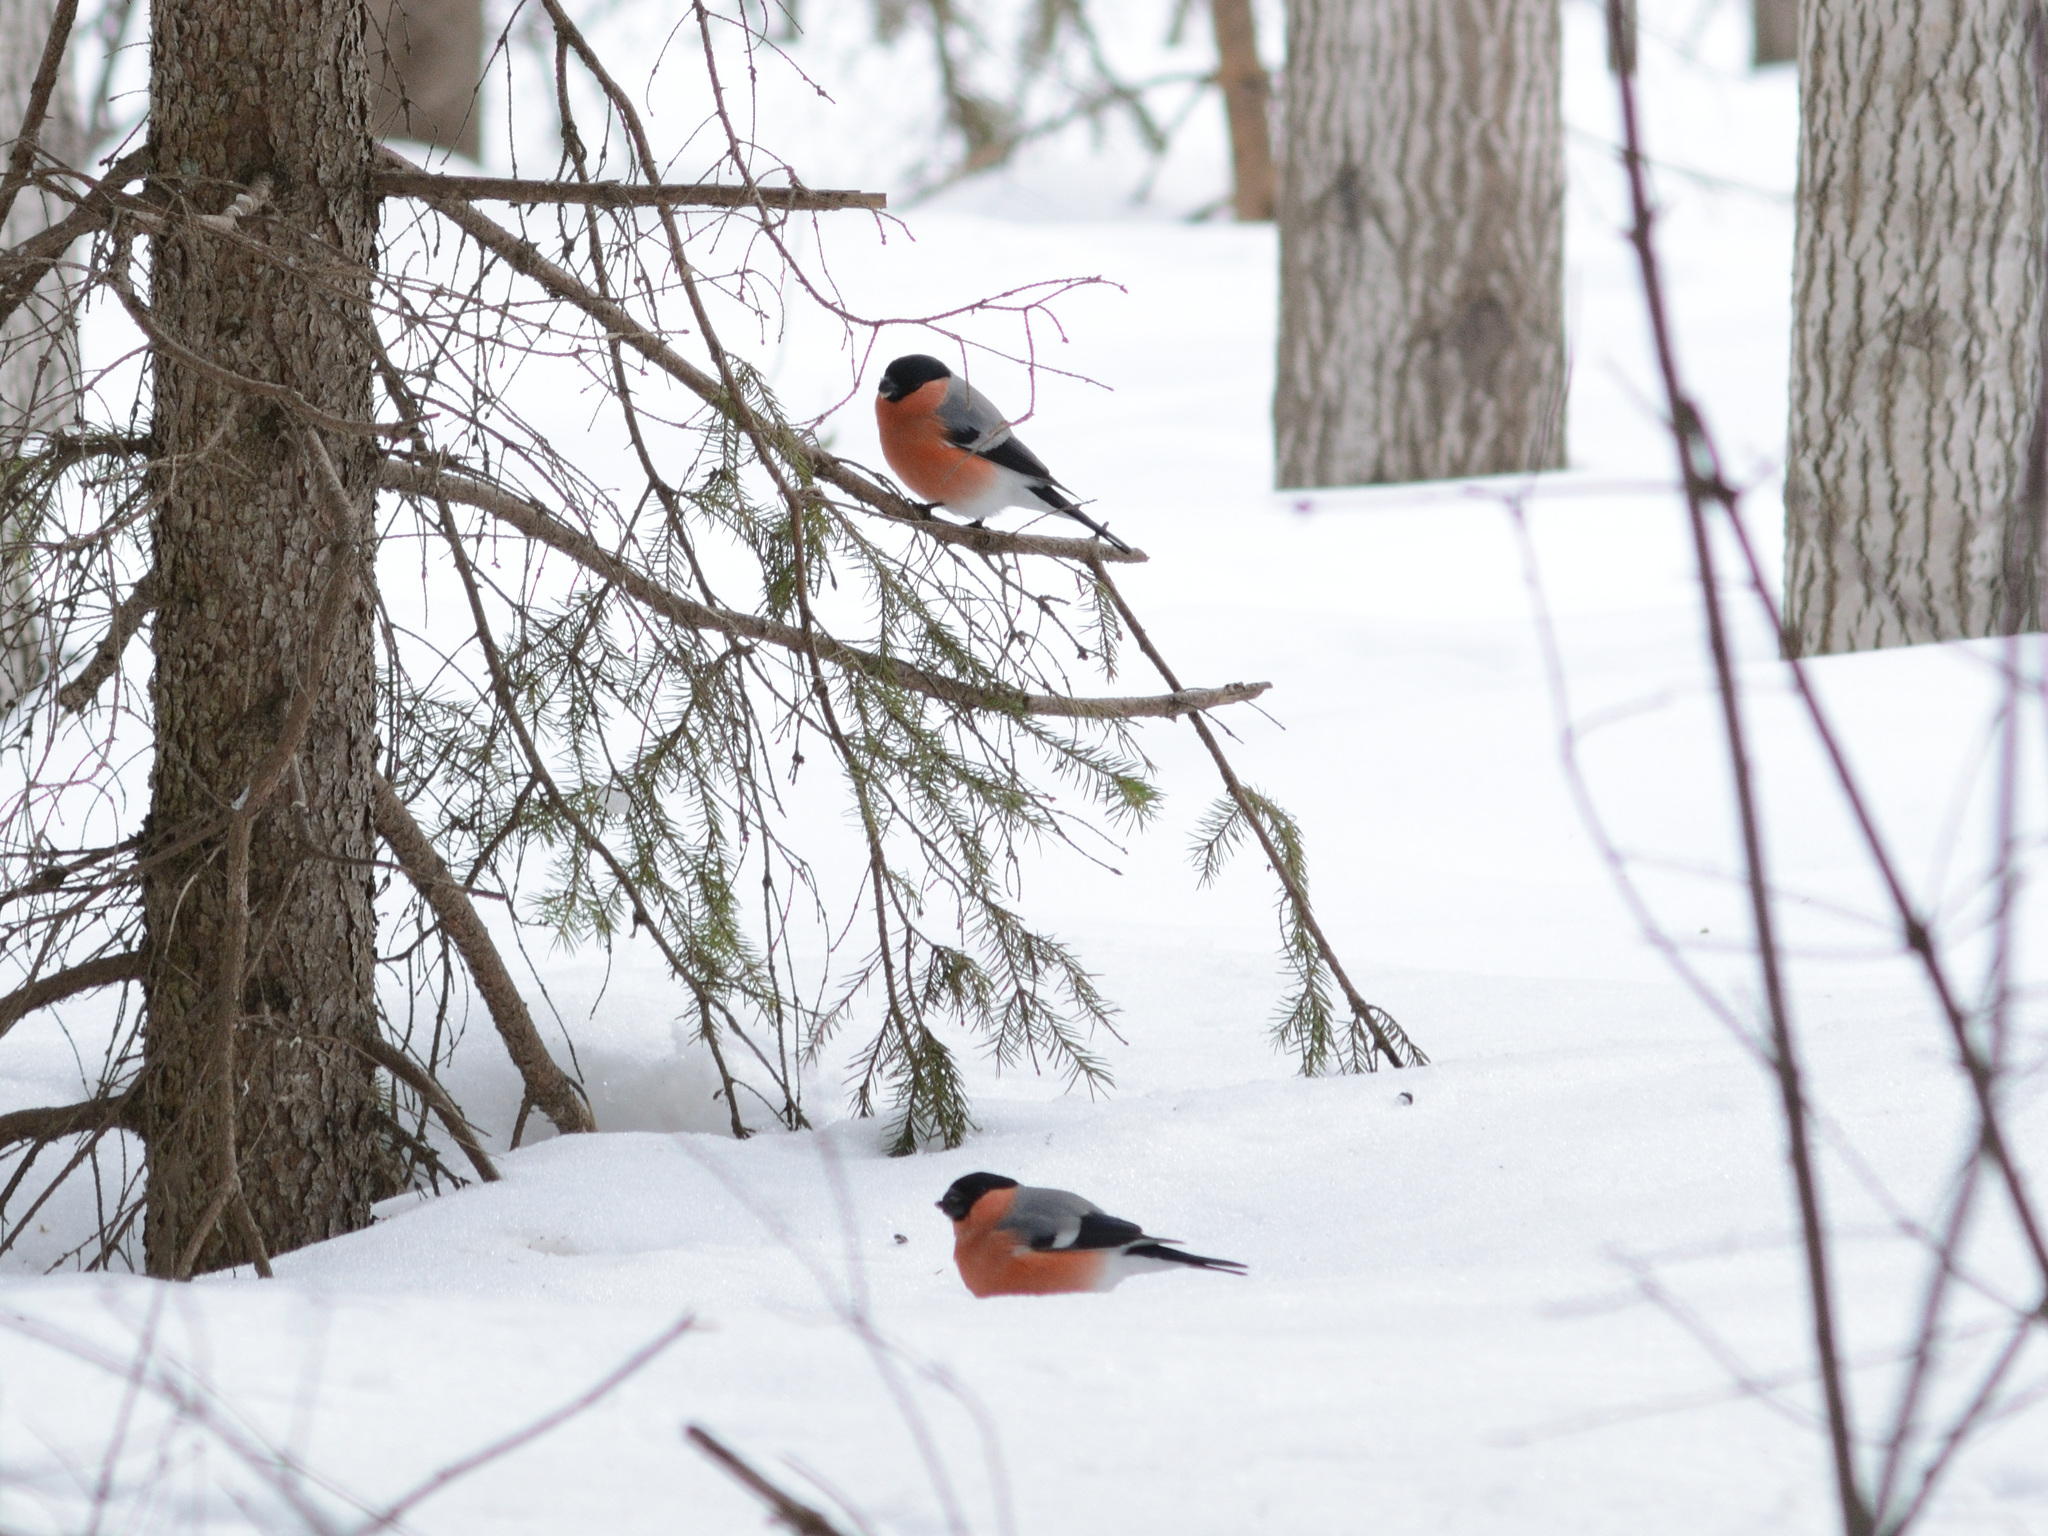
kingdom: Animalia
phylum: Chordata
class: Aves
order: Passeriformes
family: Fringillidae
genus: Pyrrhula
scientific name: Pyrrhula pyrrhula
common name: Eurasian bullfinch
